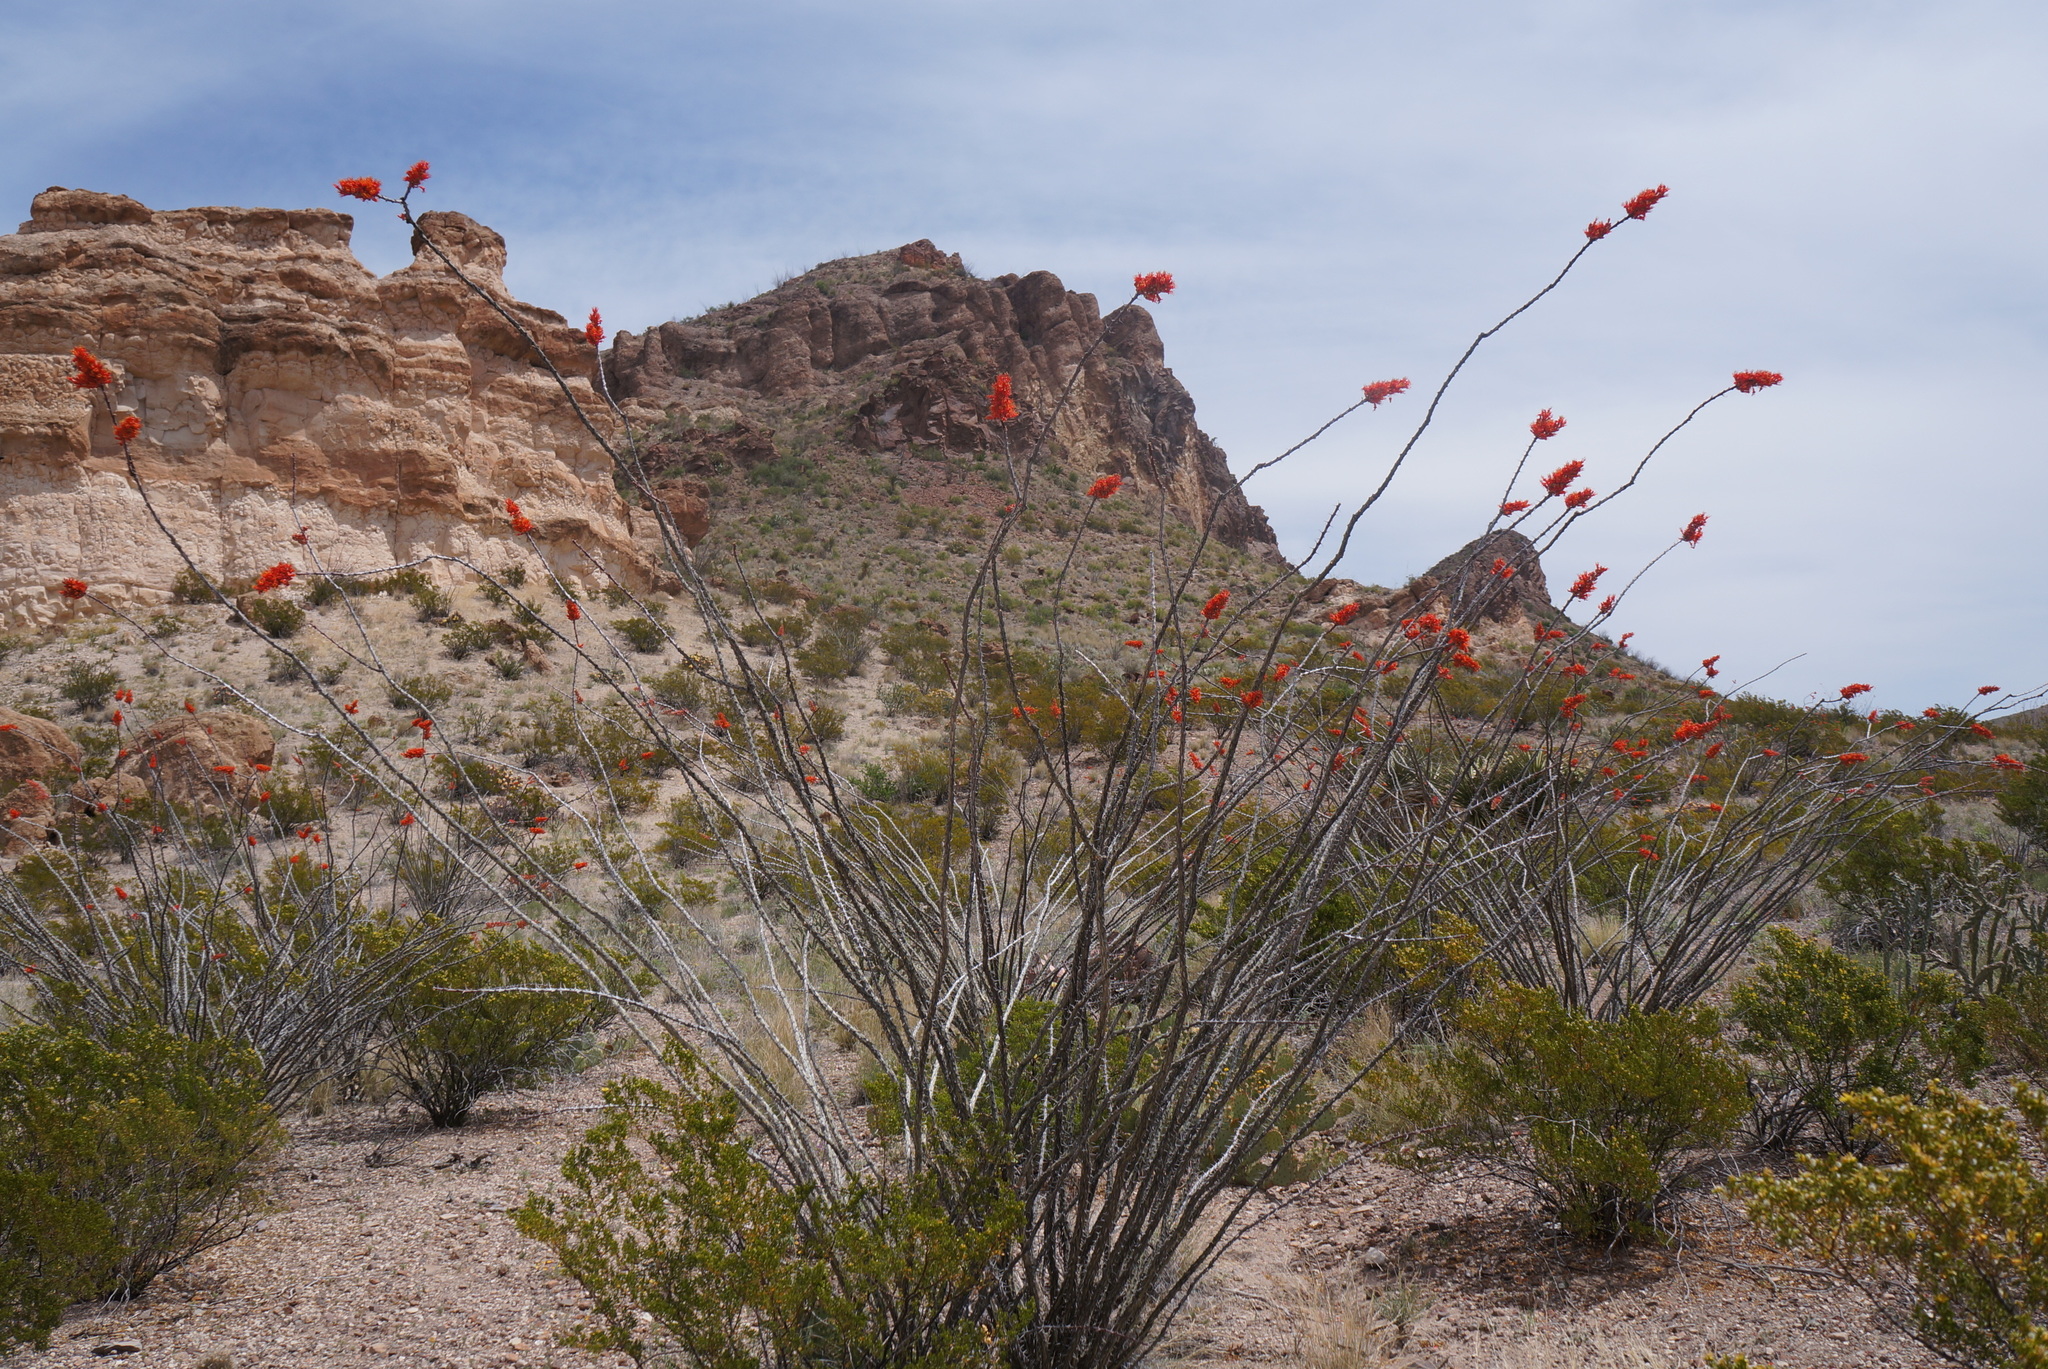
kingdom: Plantae
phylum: Tracheophyta
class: Magnoliopsida
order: Ericales
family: Fouquieriaceae
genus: Fouquieria
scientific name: Fouquieria splendens
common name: Vine-cactus
